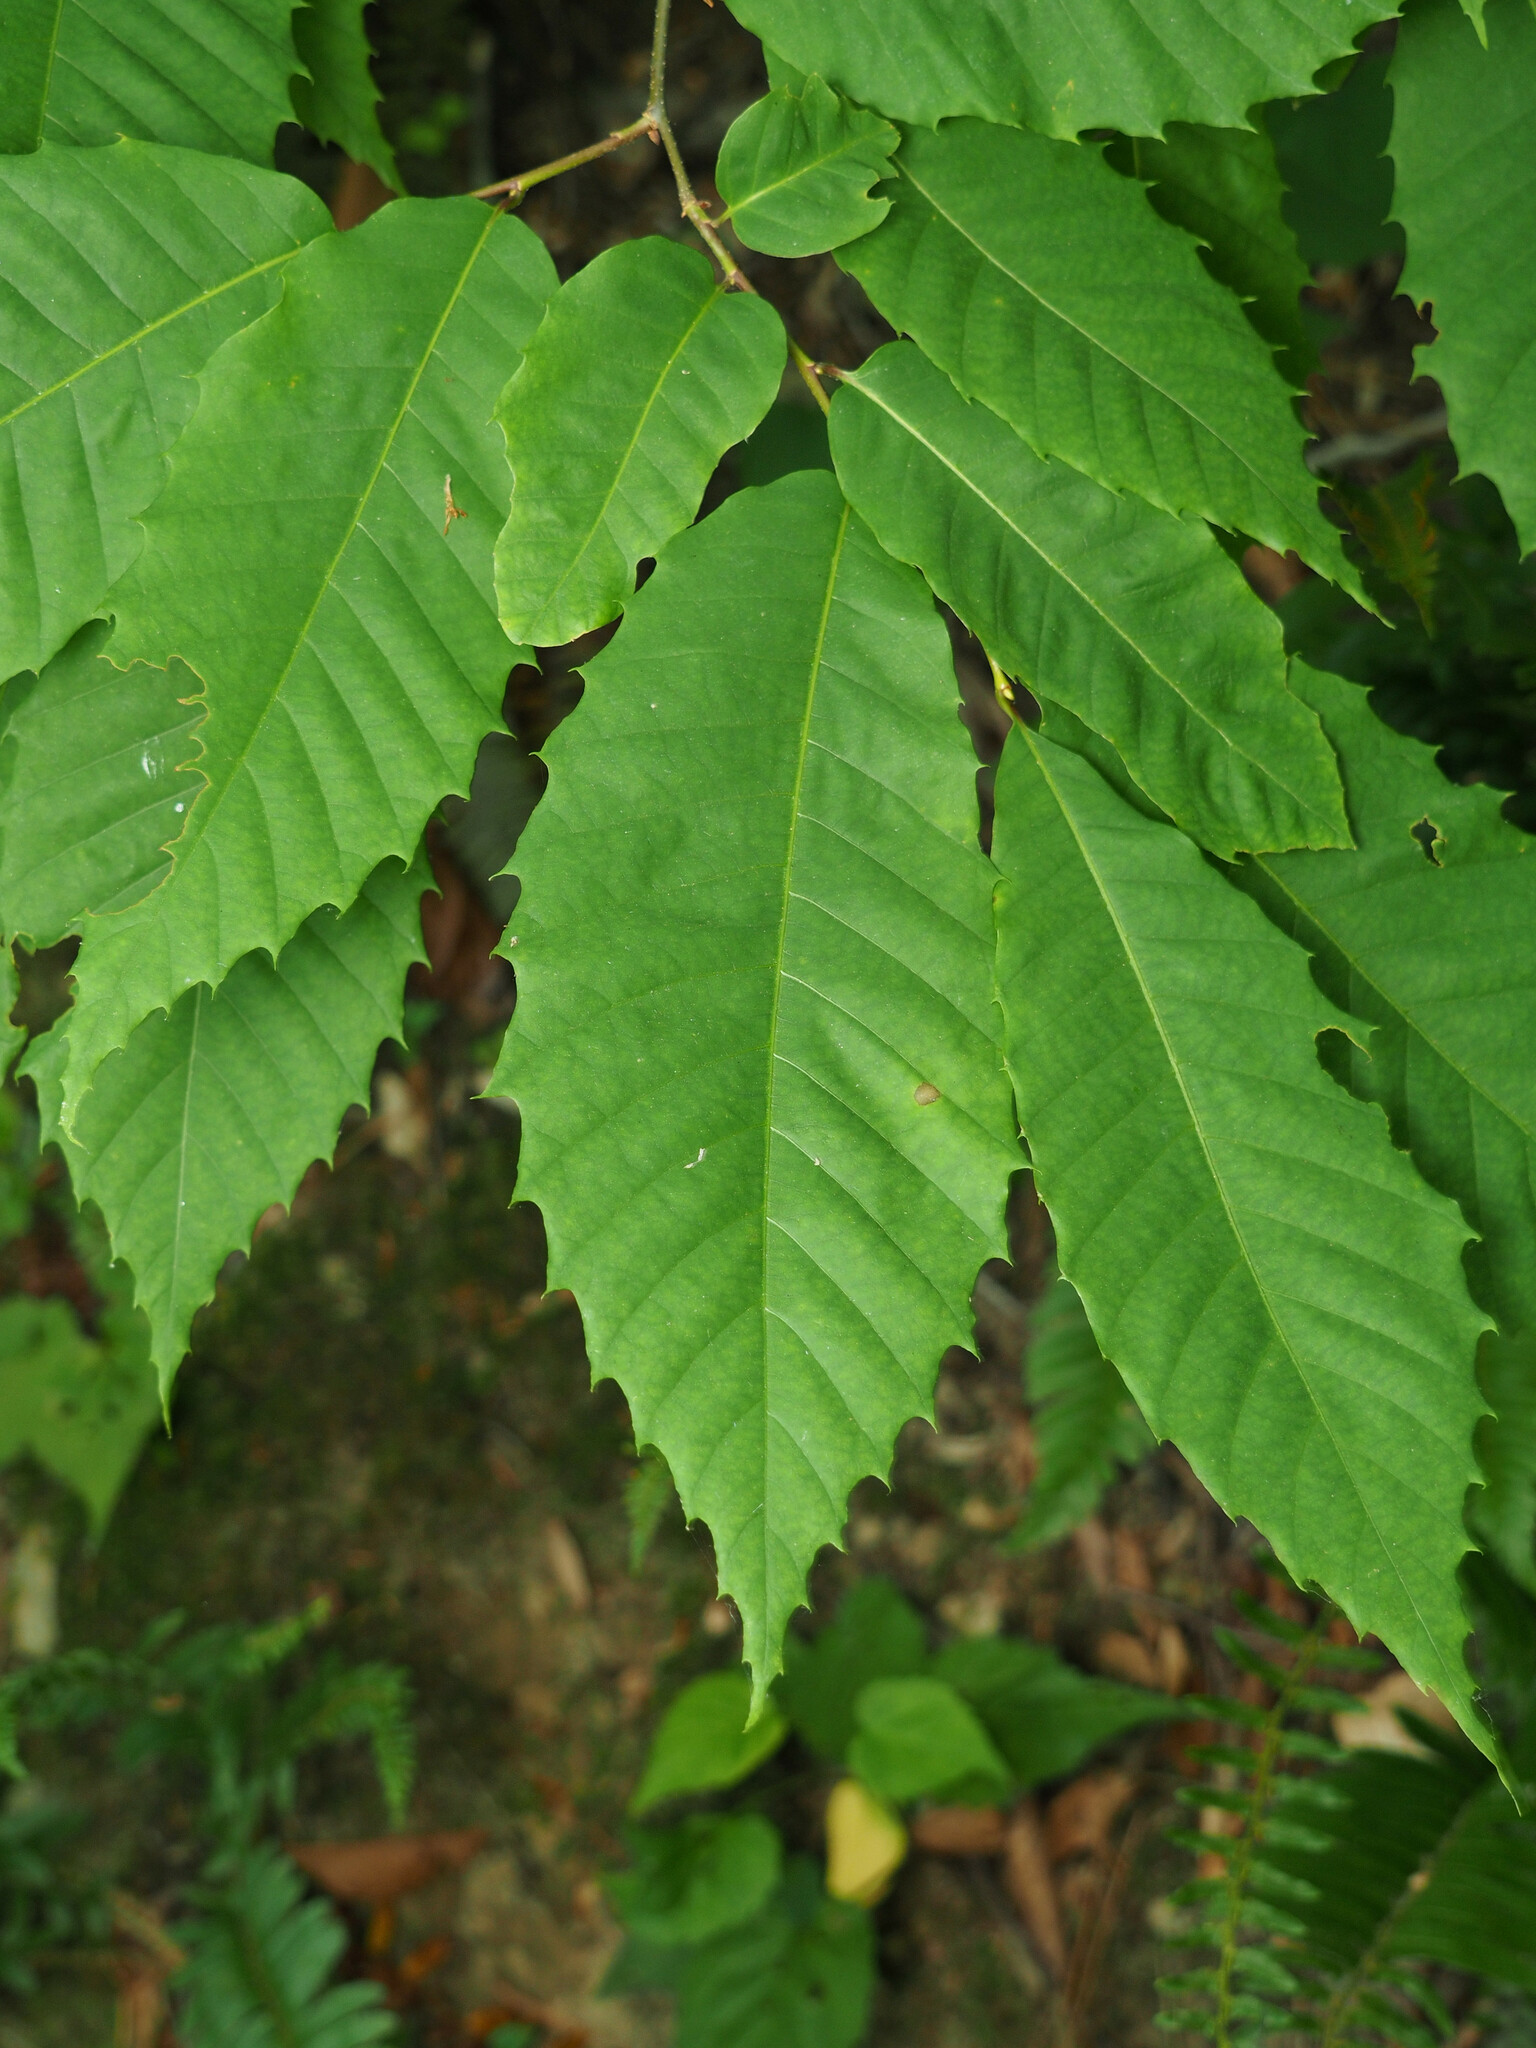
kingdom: Plantae
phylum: Tracheophyta
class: Magnoliopsida
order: Fagales
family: Fagaceae
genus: Castanea
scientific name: Castanea dentata
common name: American chestnut
